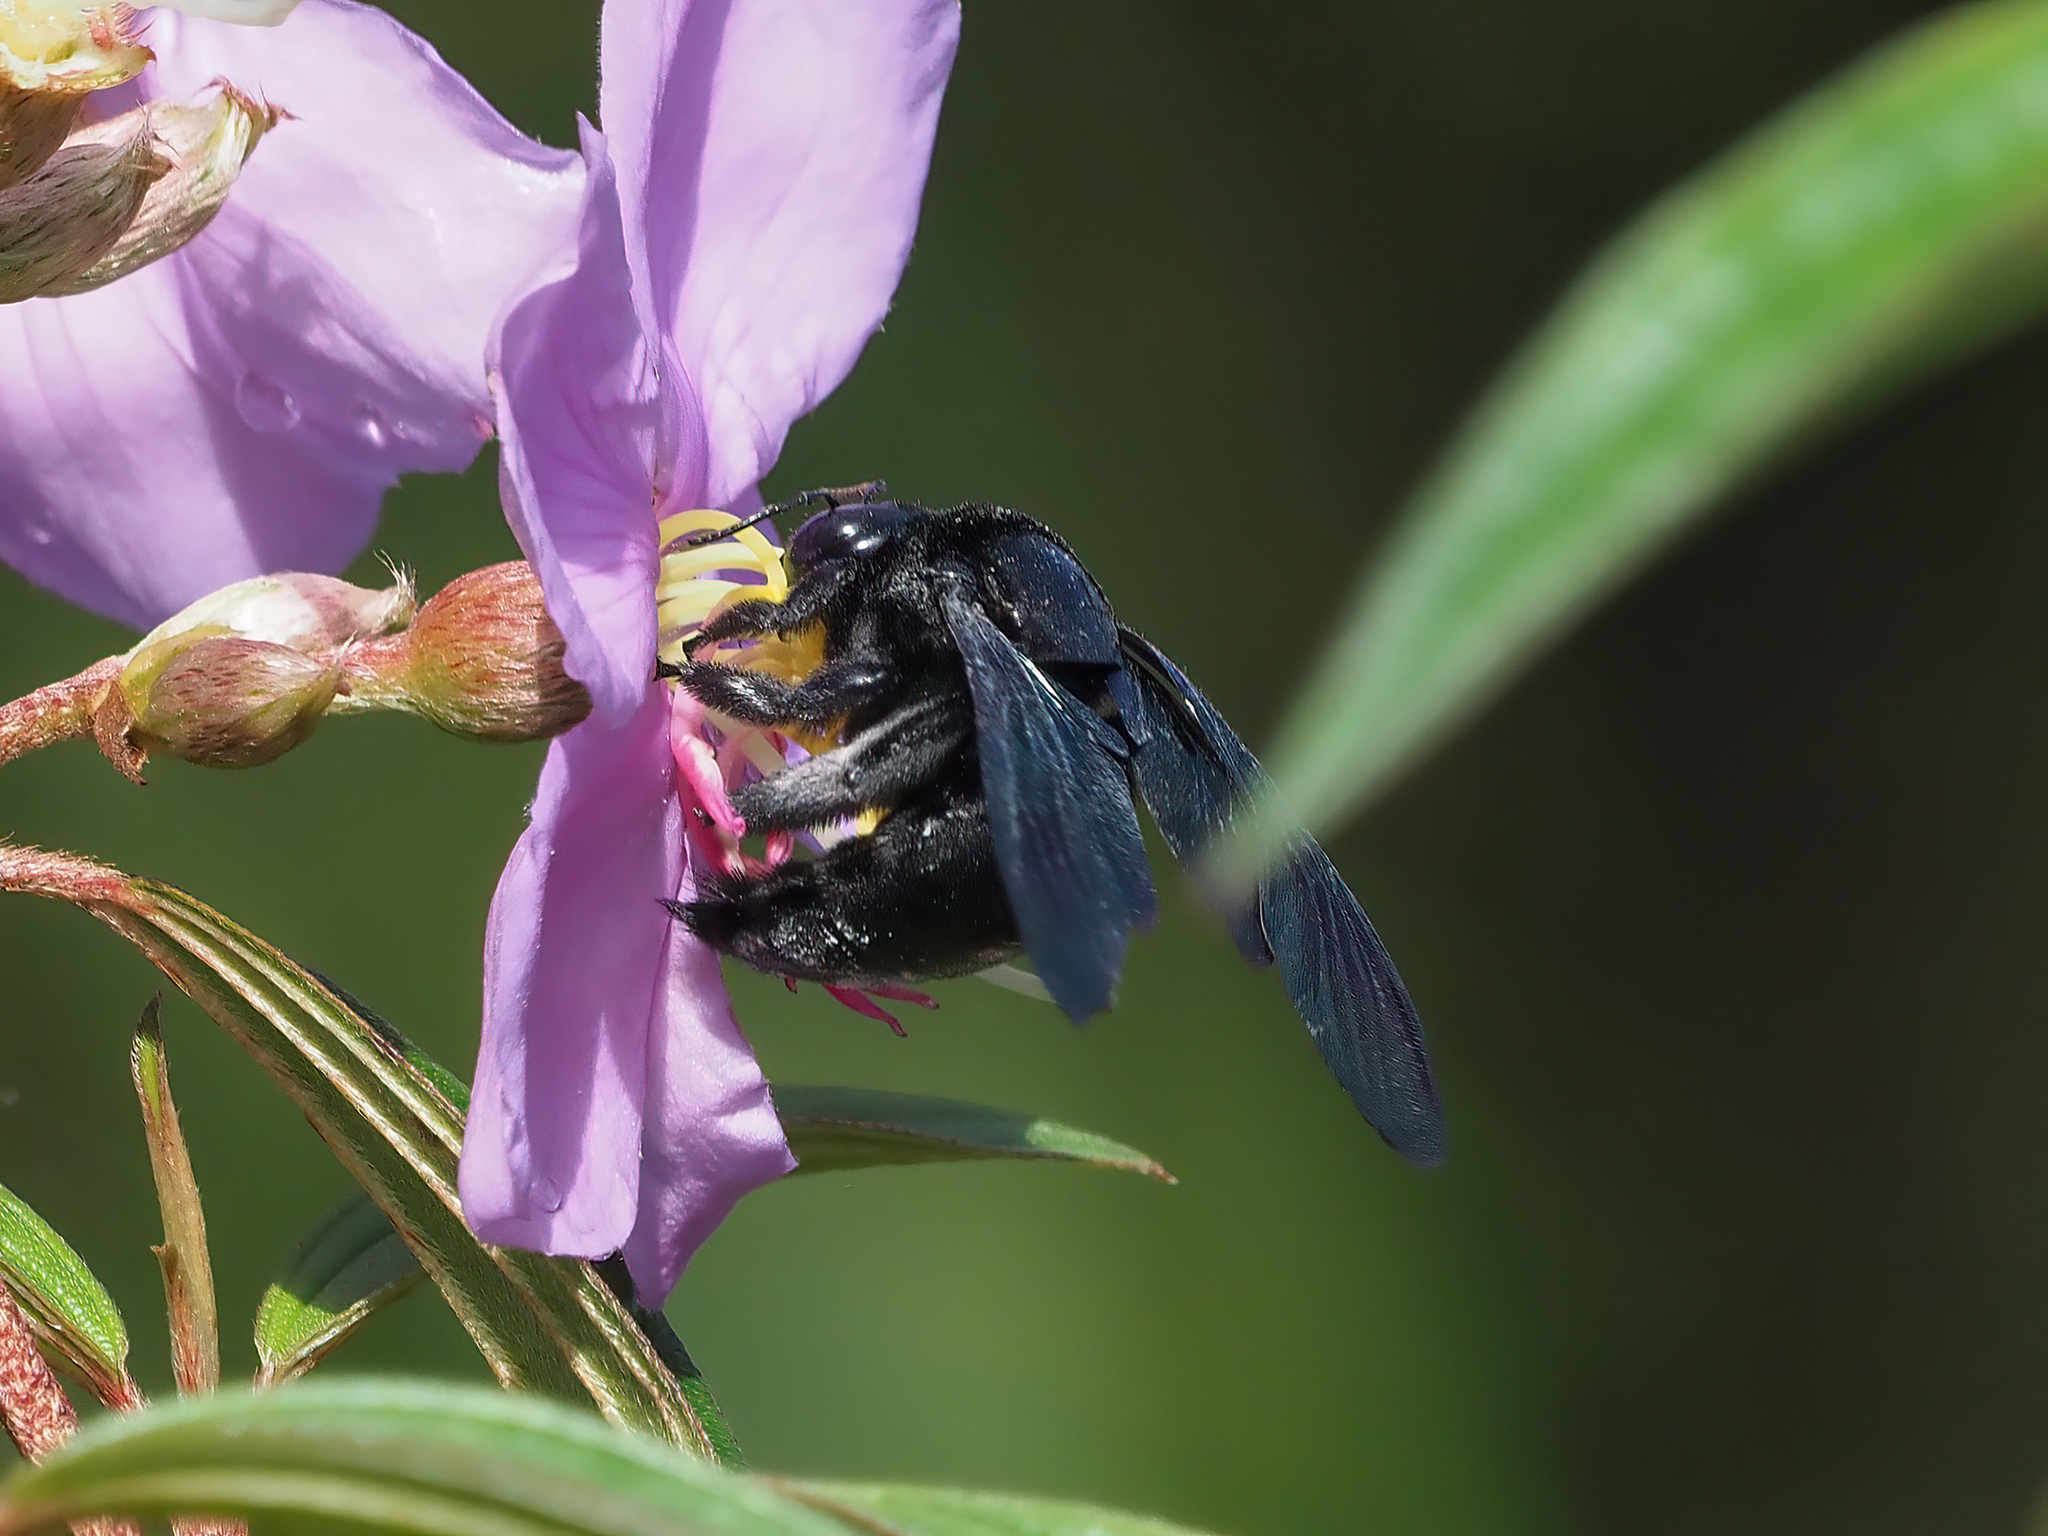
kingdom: Animalia
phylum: Arthropoda
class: Insecta
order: Hymenoptera
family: Apidae
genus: Xylocopa
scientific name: Xylocopa latipes
